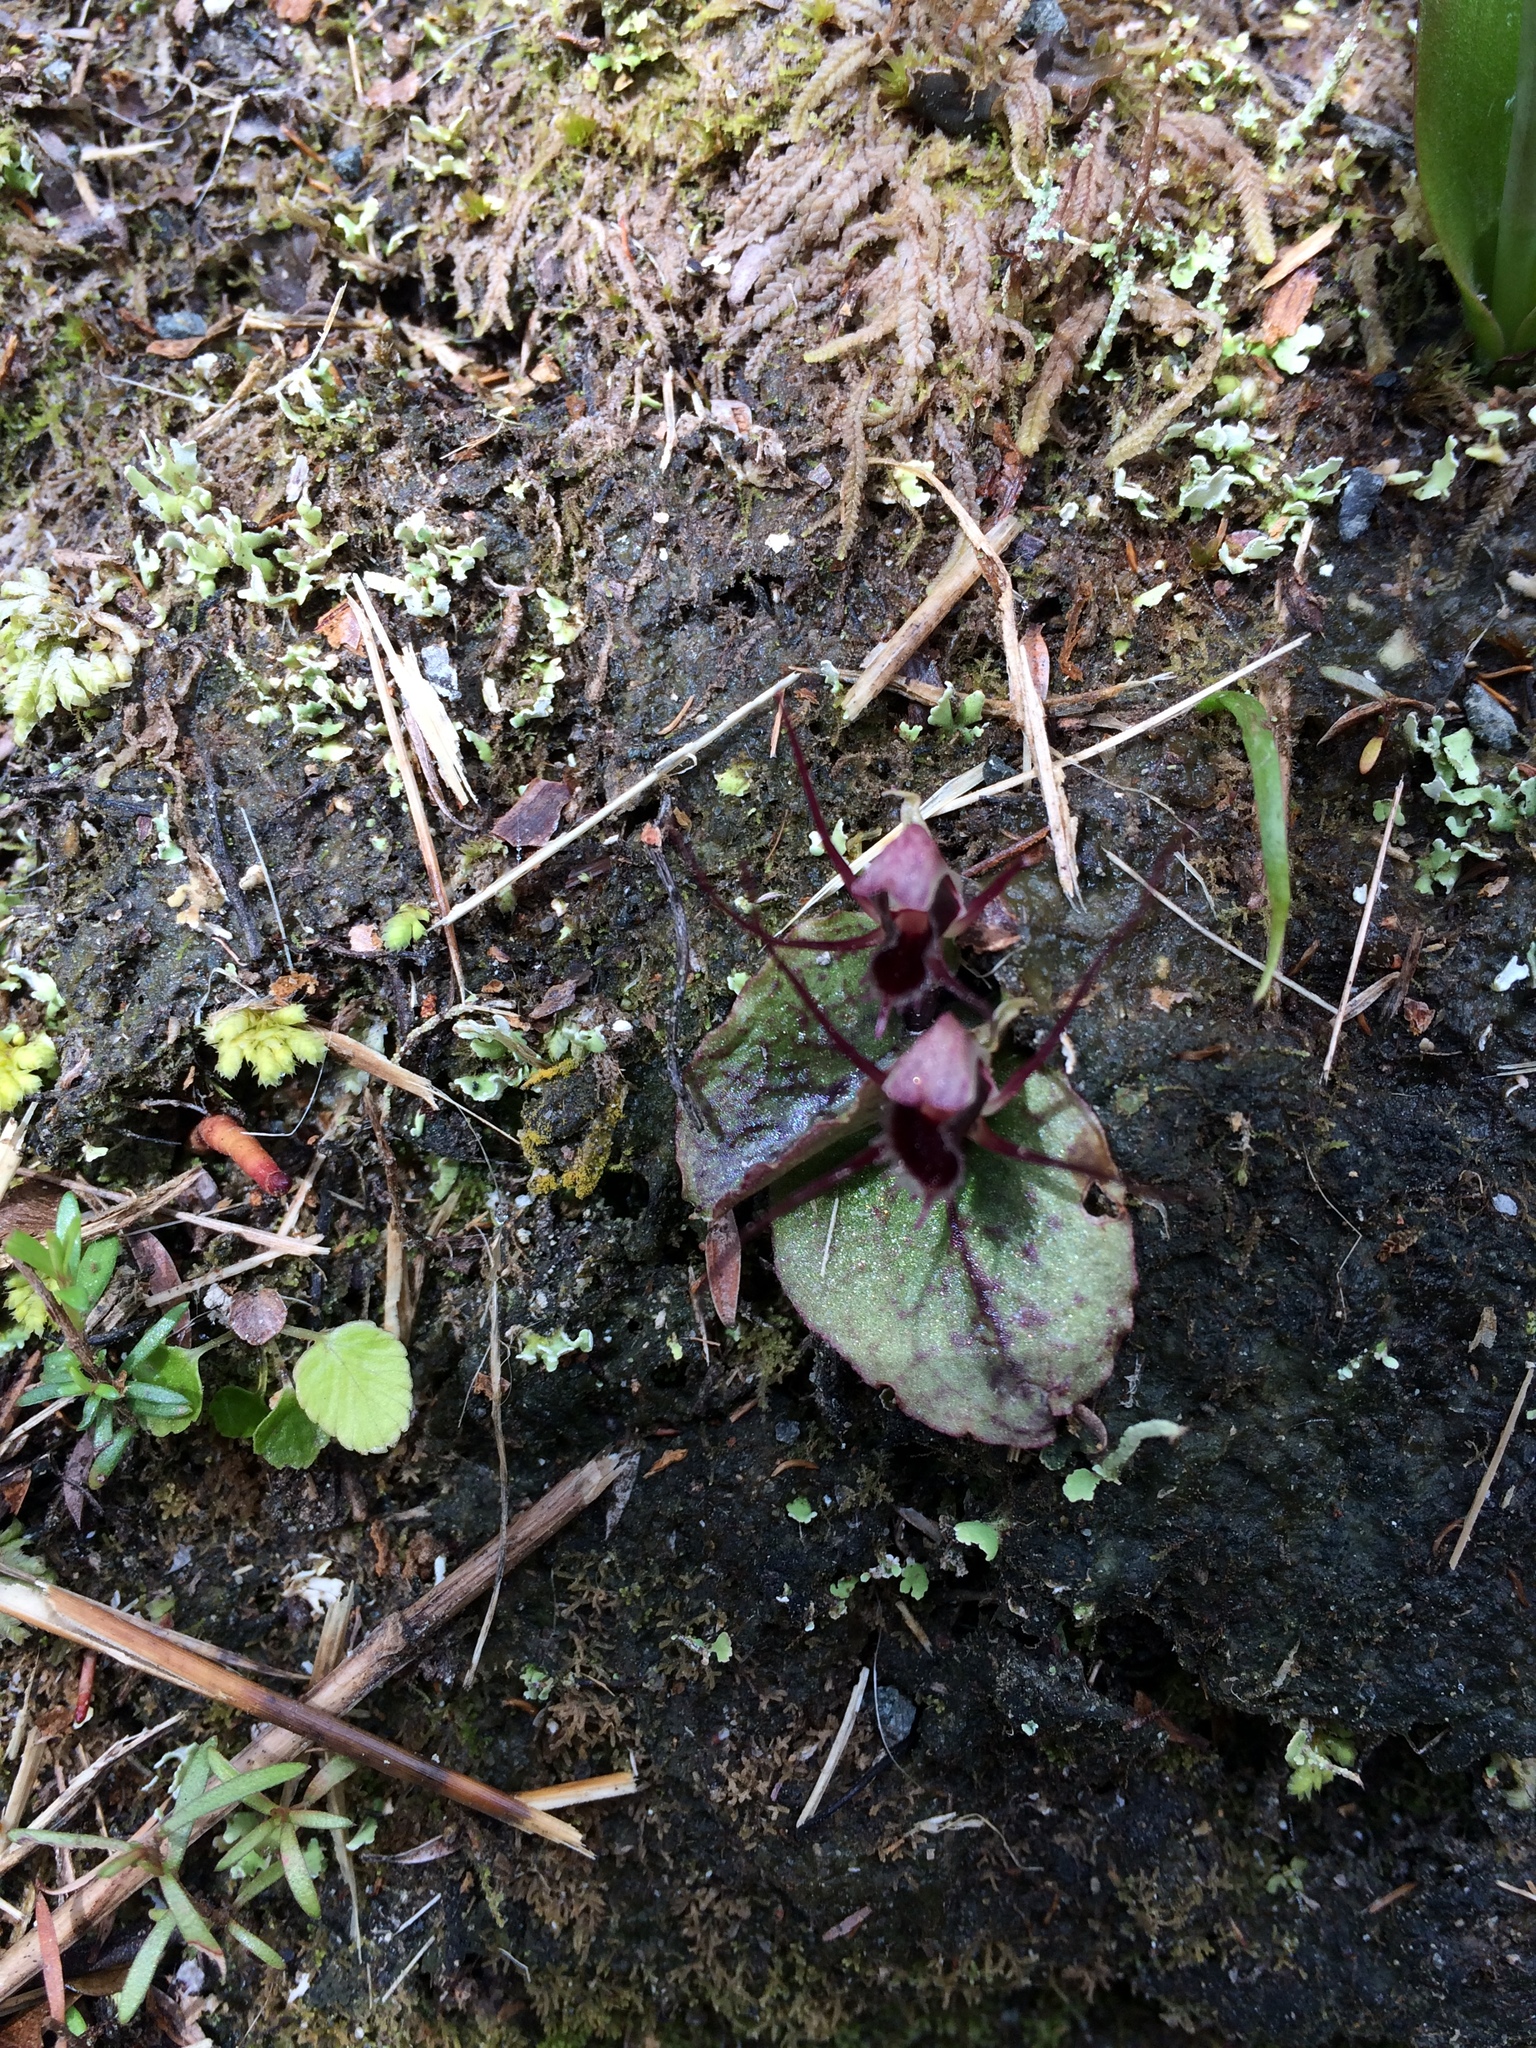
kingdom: Plantae
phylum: Tracheophyta
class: Liliopsida
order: Asparagales
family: Orchidaceae
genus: Corybas
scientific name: Corybas oblongus
